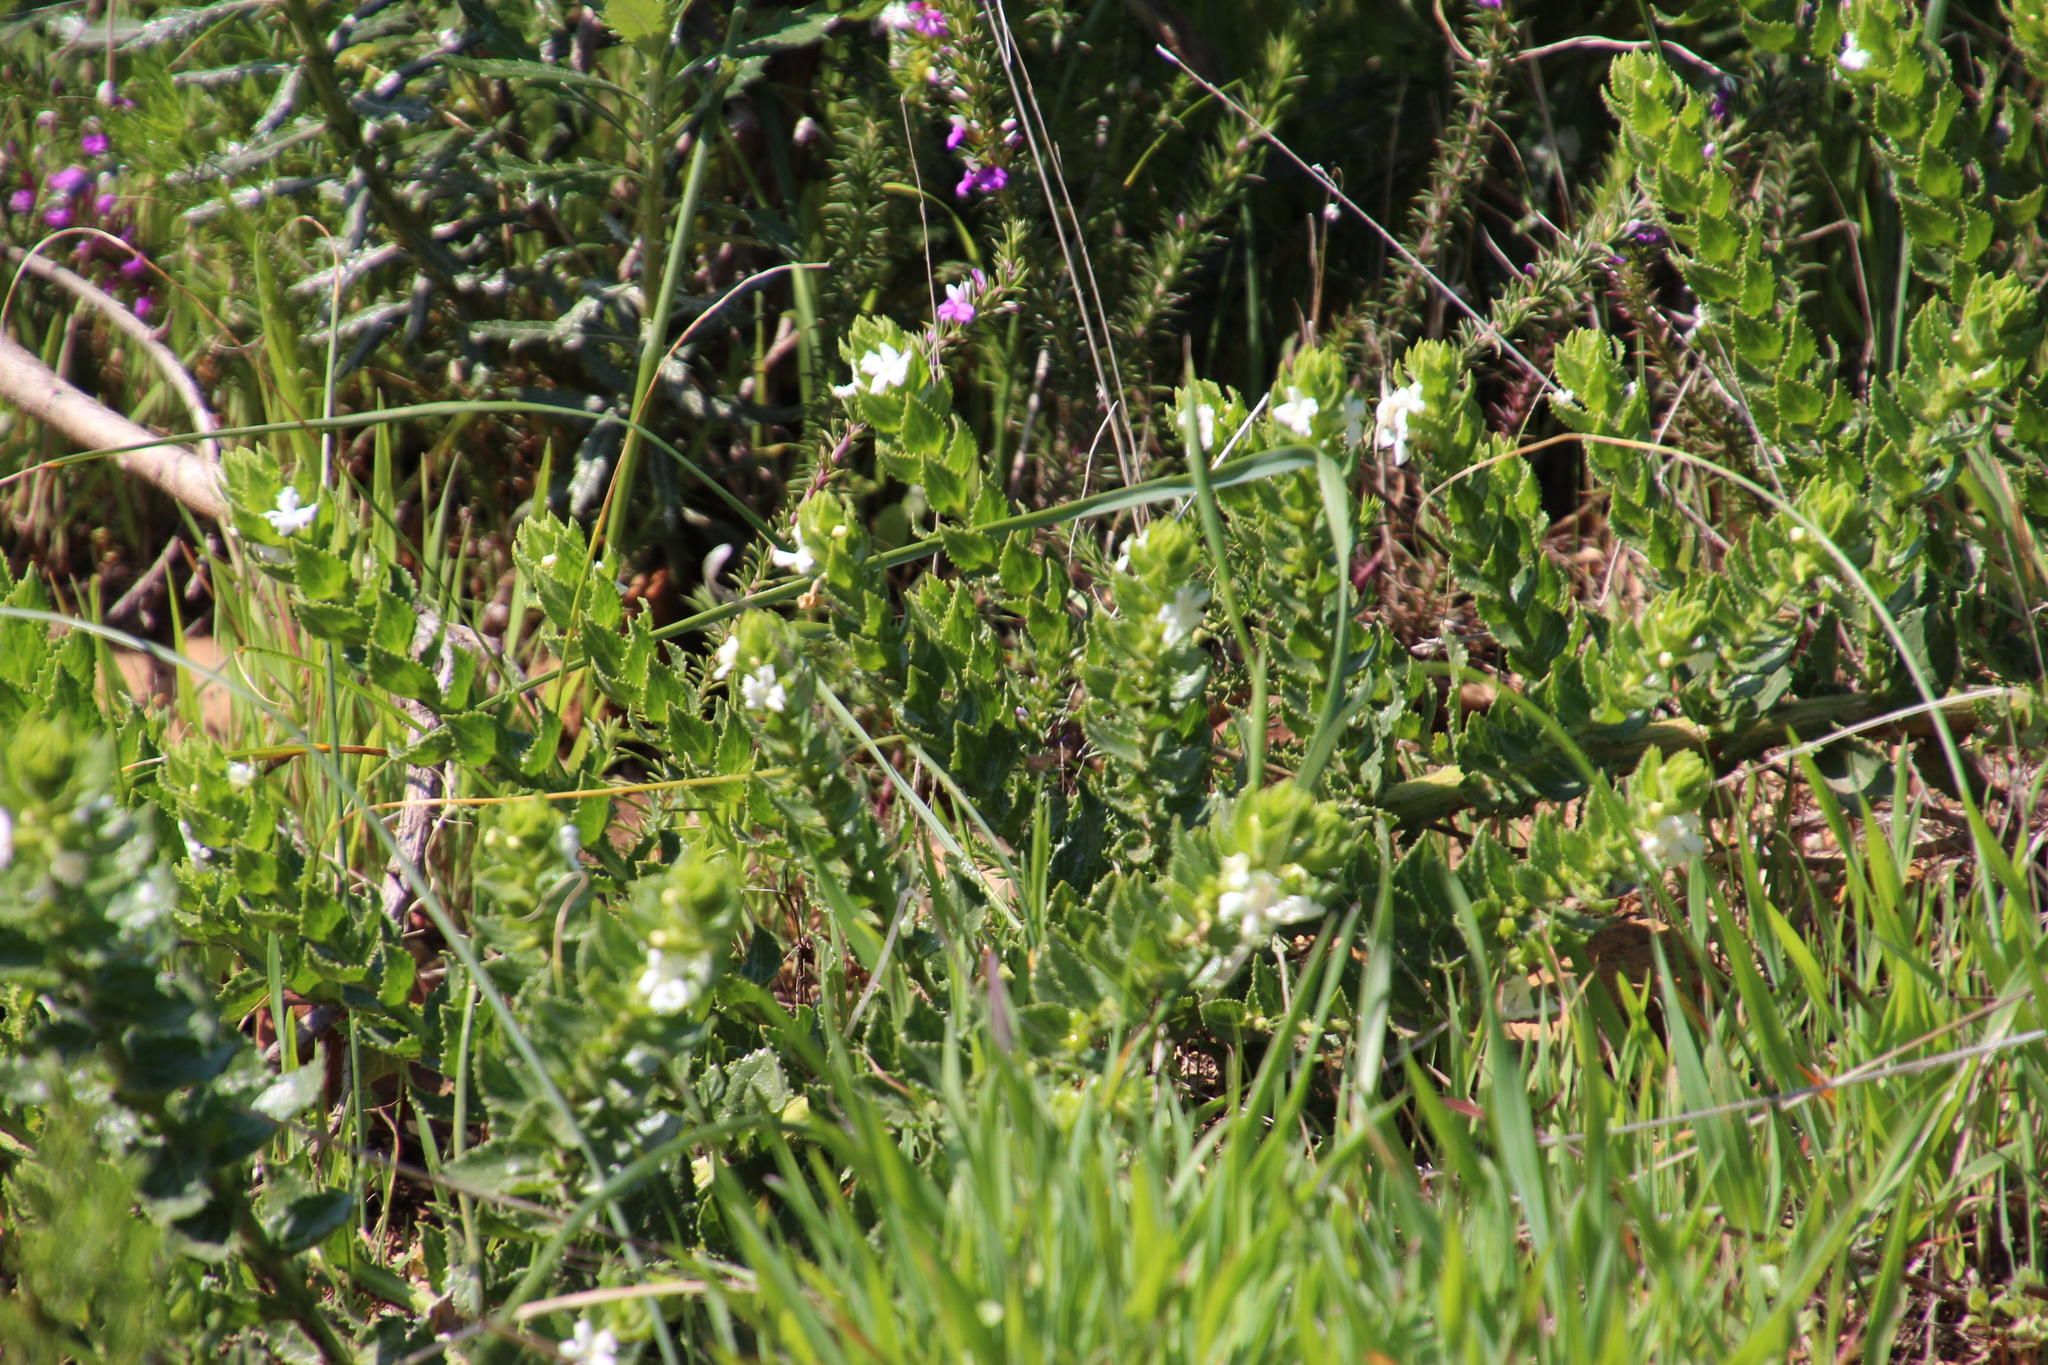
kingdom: Plantae
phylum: Tracheophyta
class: Magnoliopsida
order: Lamiales
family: Scrophulariaceae
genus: Oftia
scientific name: Oftia africana
